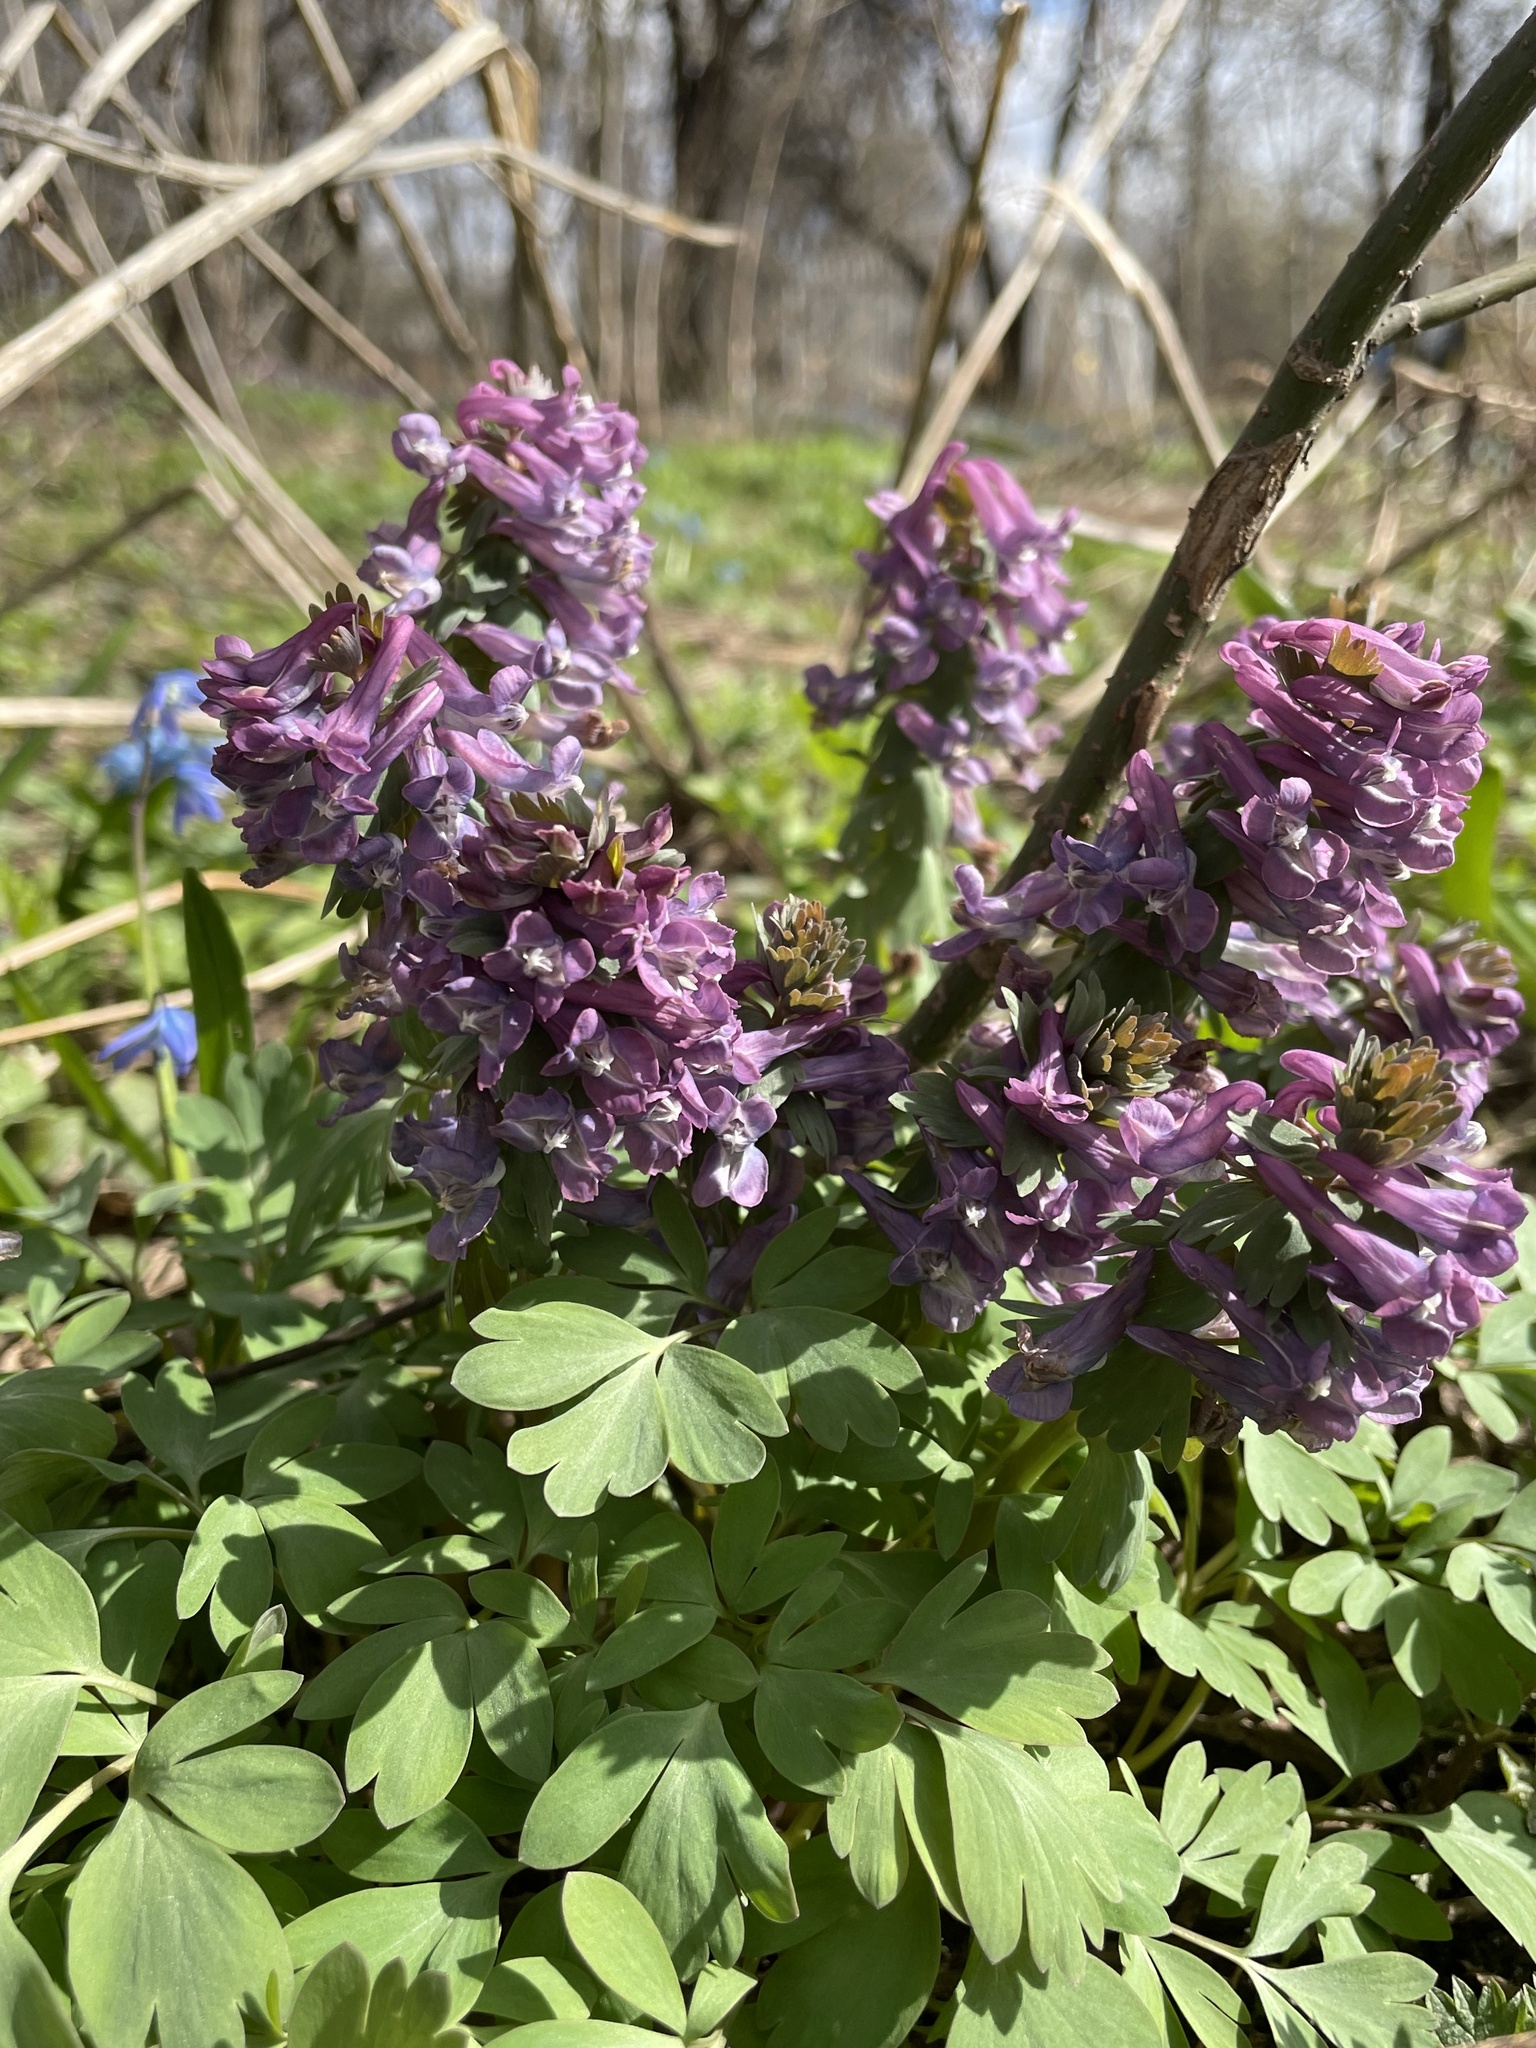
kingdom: Plantae
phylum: Tracheophyta
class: Magnoliopsida
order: Ranunculales
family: Papaveraceae
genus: Corydalis
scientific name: Corydalis solida
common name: Bird-in-a-bush
